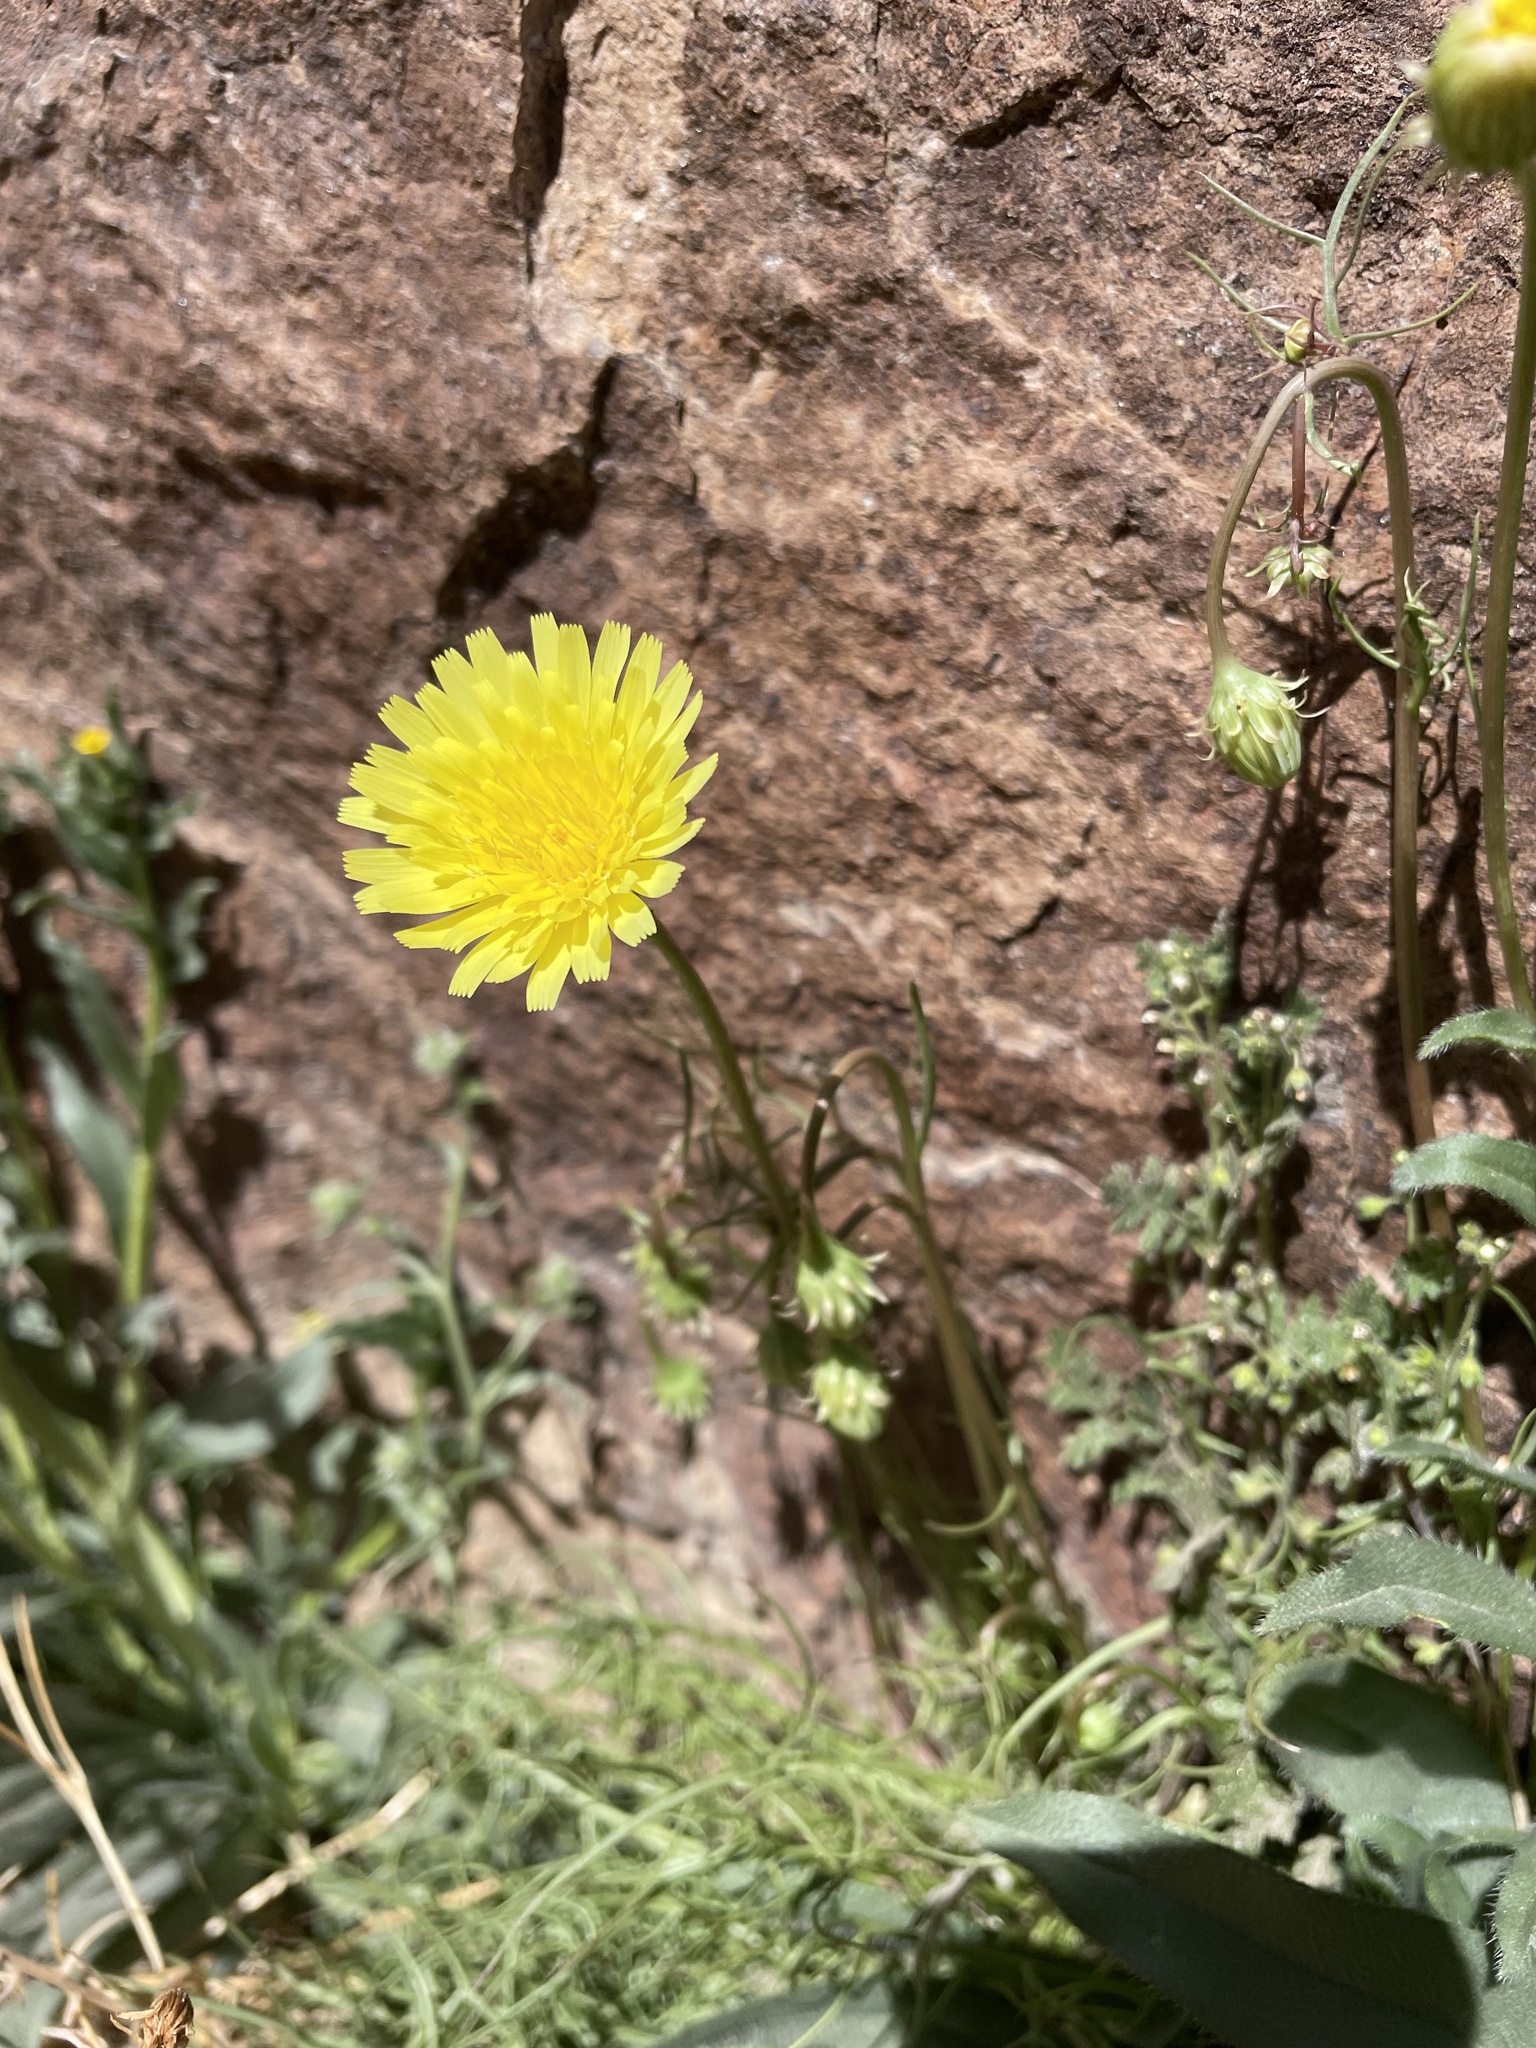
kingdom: Plantae
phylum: Tracheophyta
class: Magnoliopsida
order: Asterales
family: Asteraceae
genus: Malacothrix
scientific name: Malacothrix glabrata
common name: Smooth desert-dandelion
